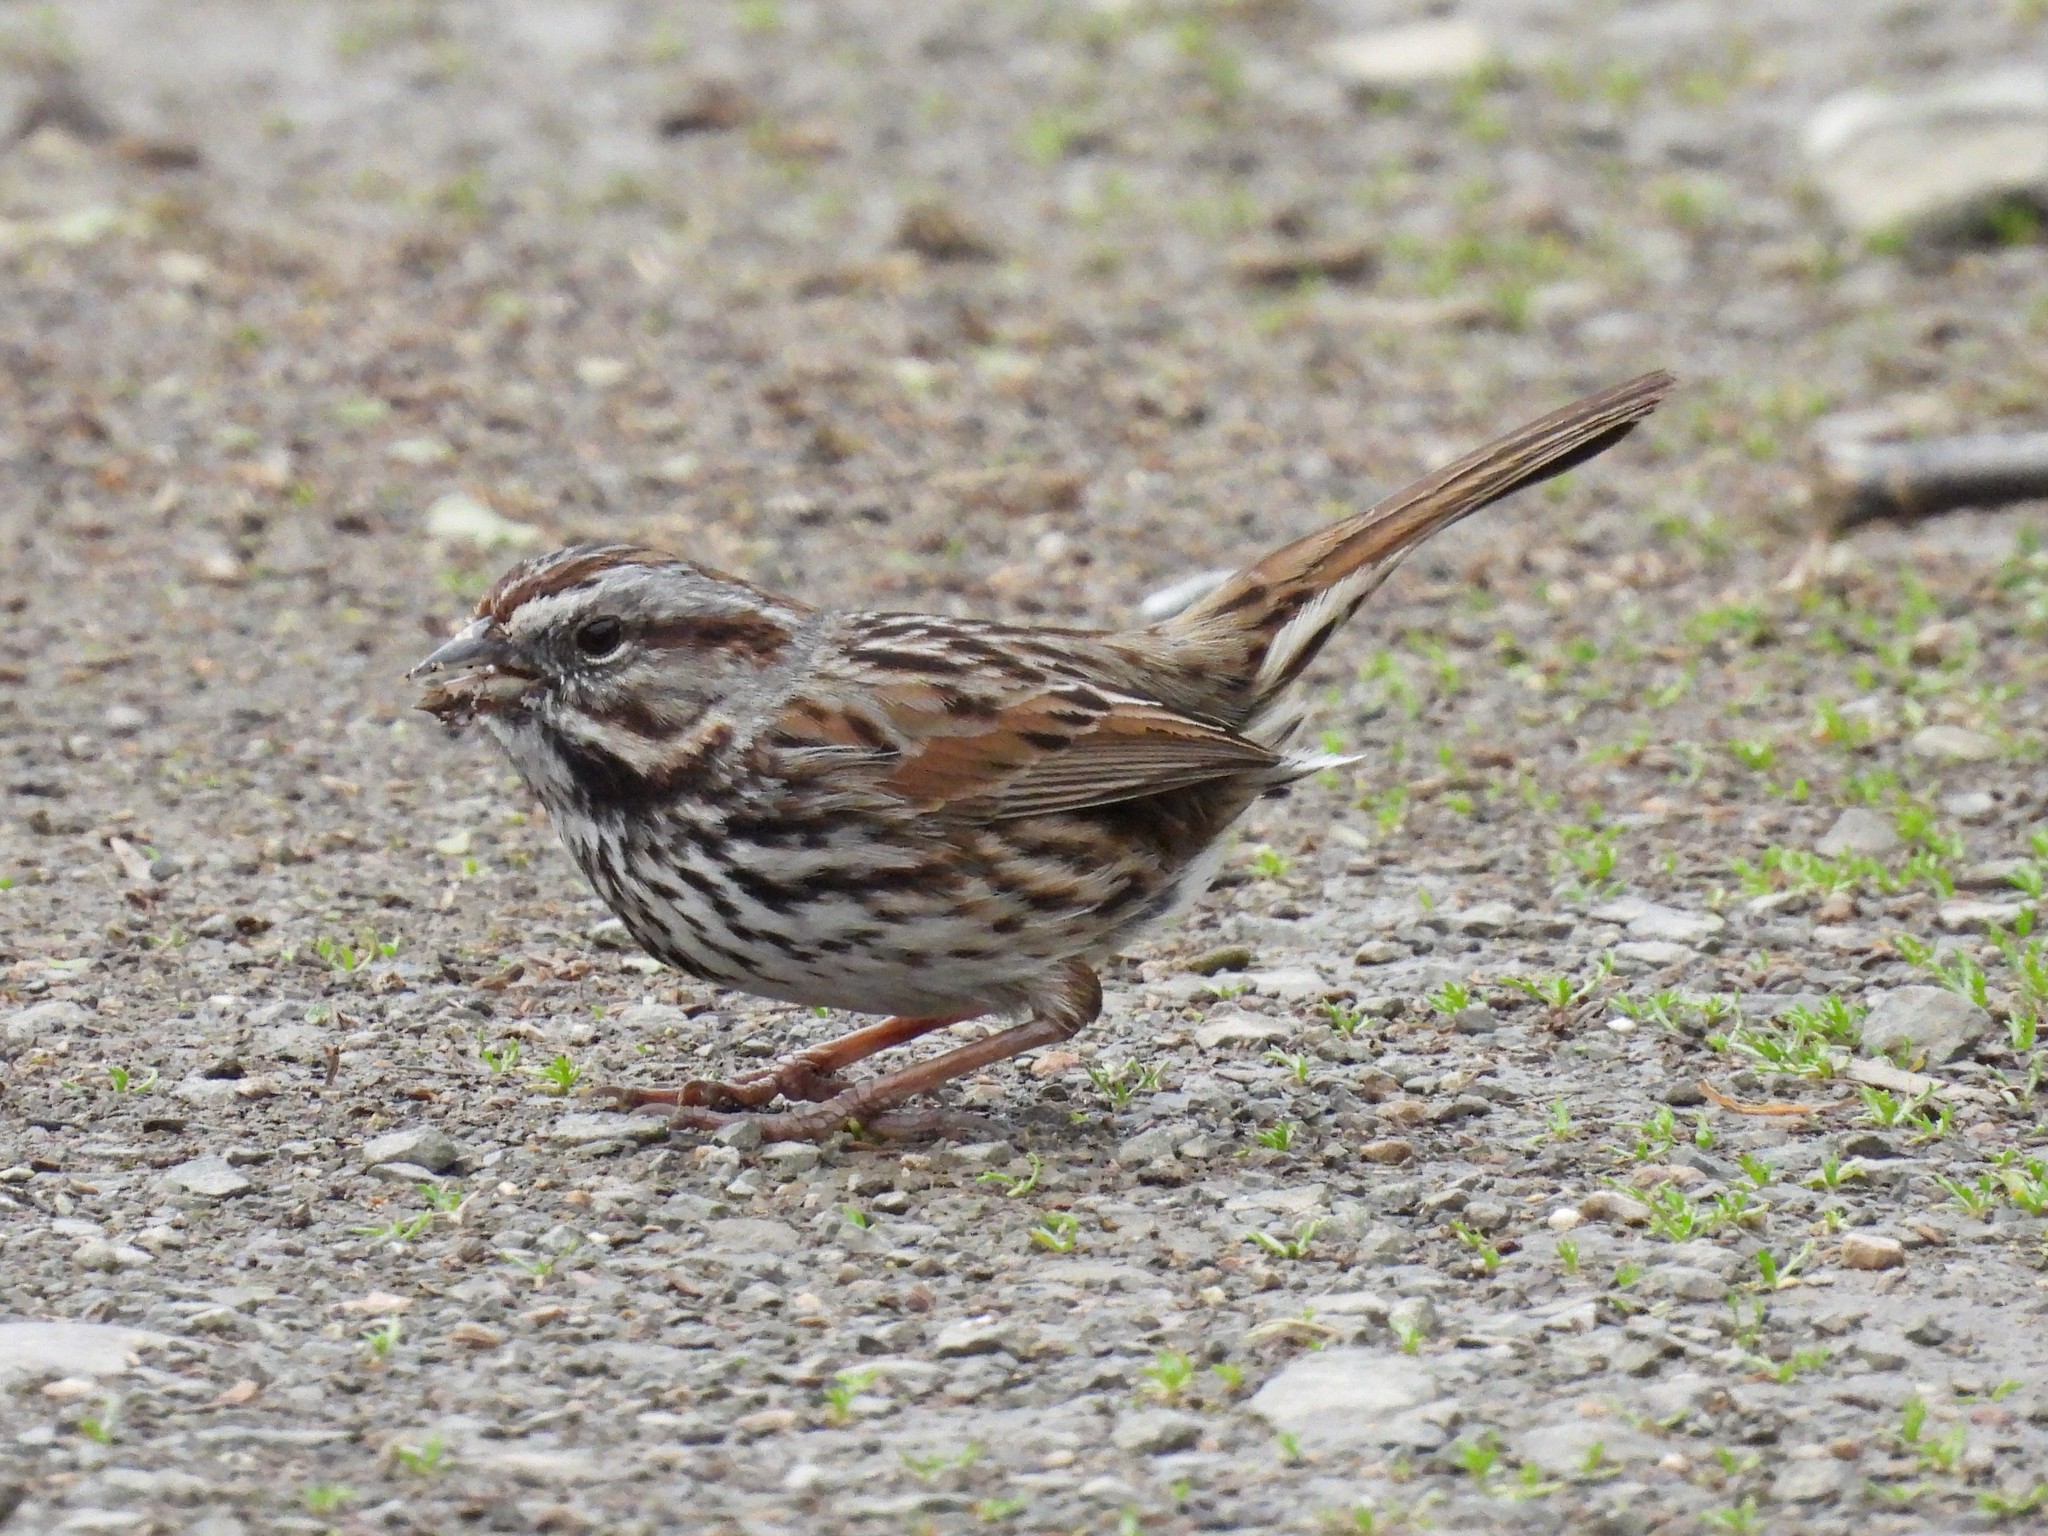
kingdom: Animalia
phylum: Chordata
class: Aves
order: Passeriformes
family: Passerellidae
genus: Melospiza
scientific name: Melospiza melodia
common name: Song sparrow
